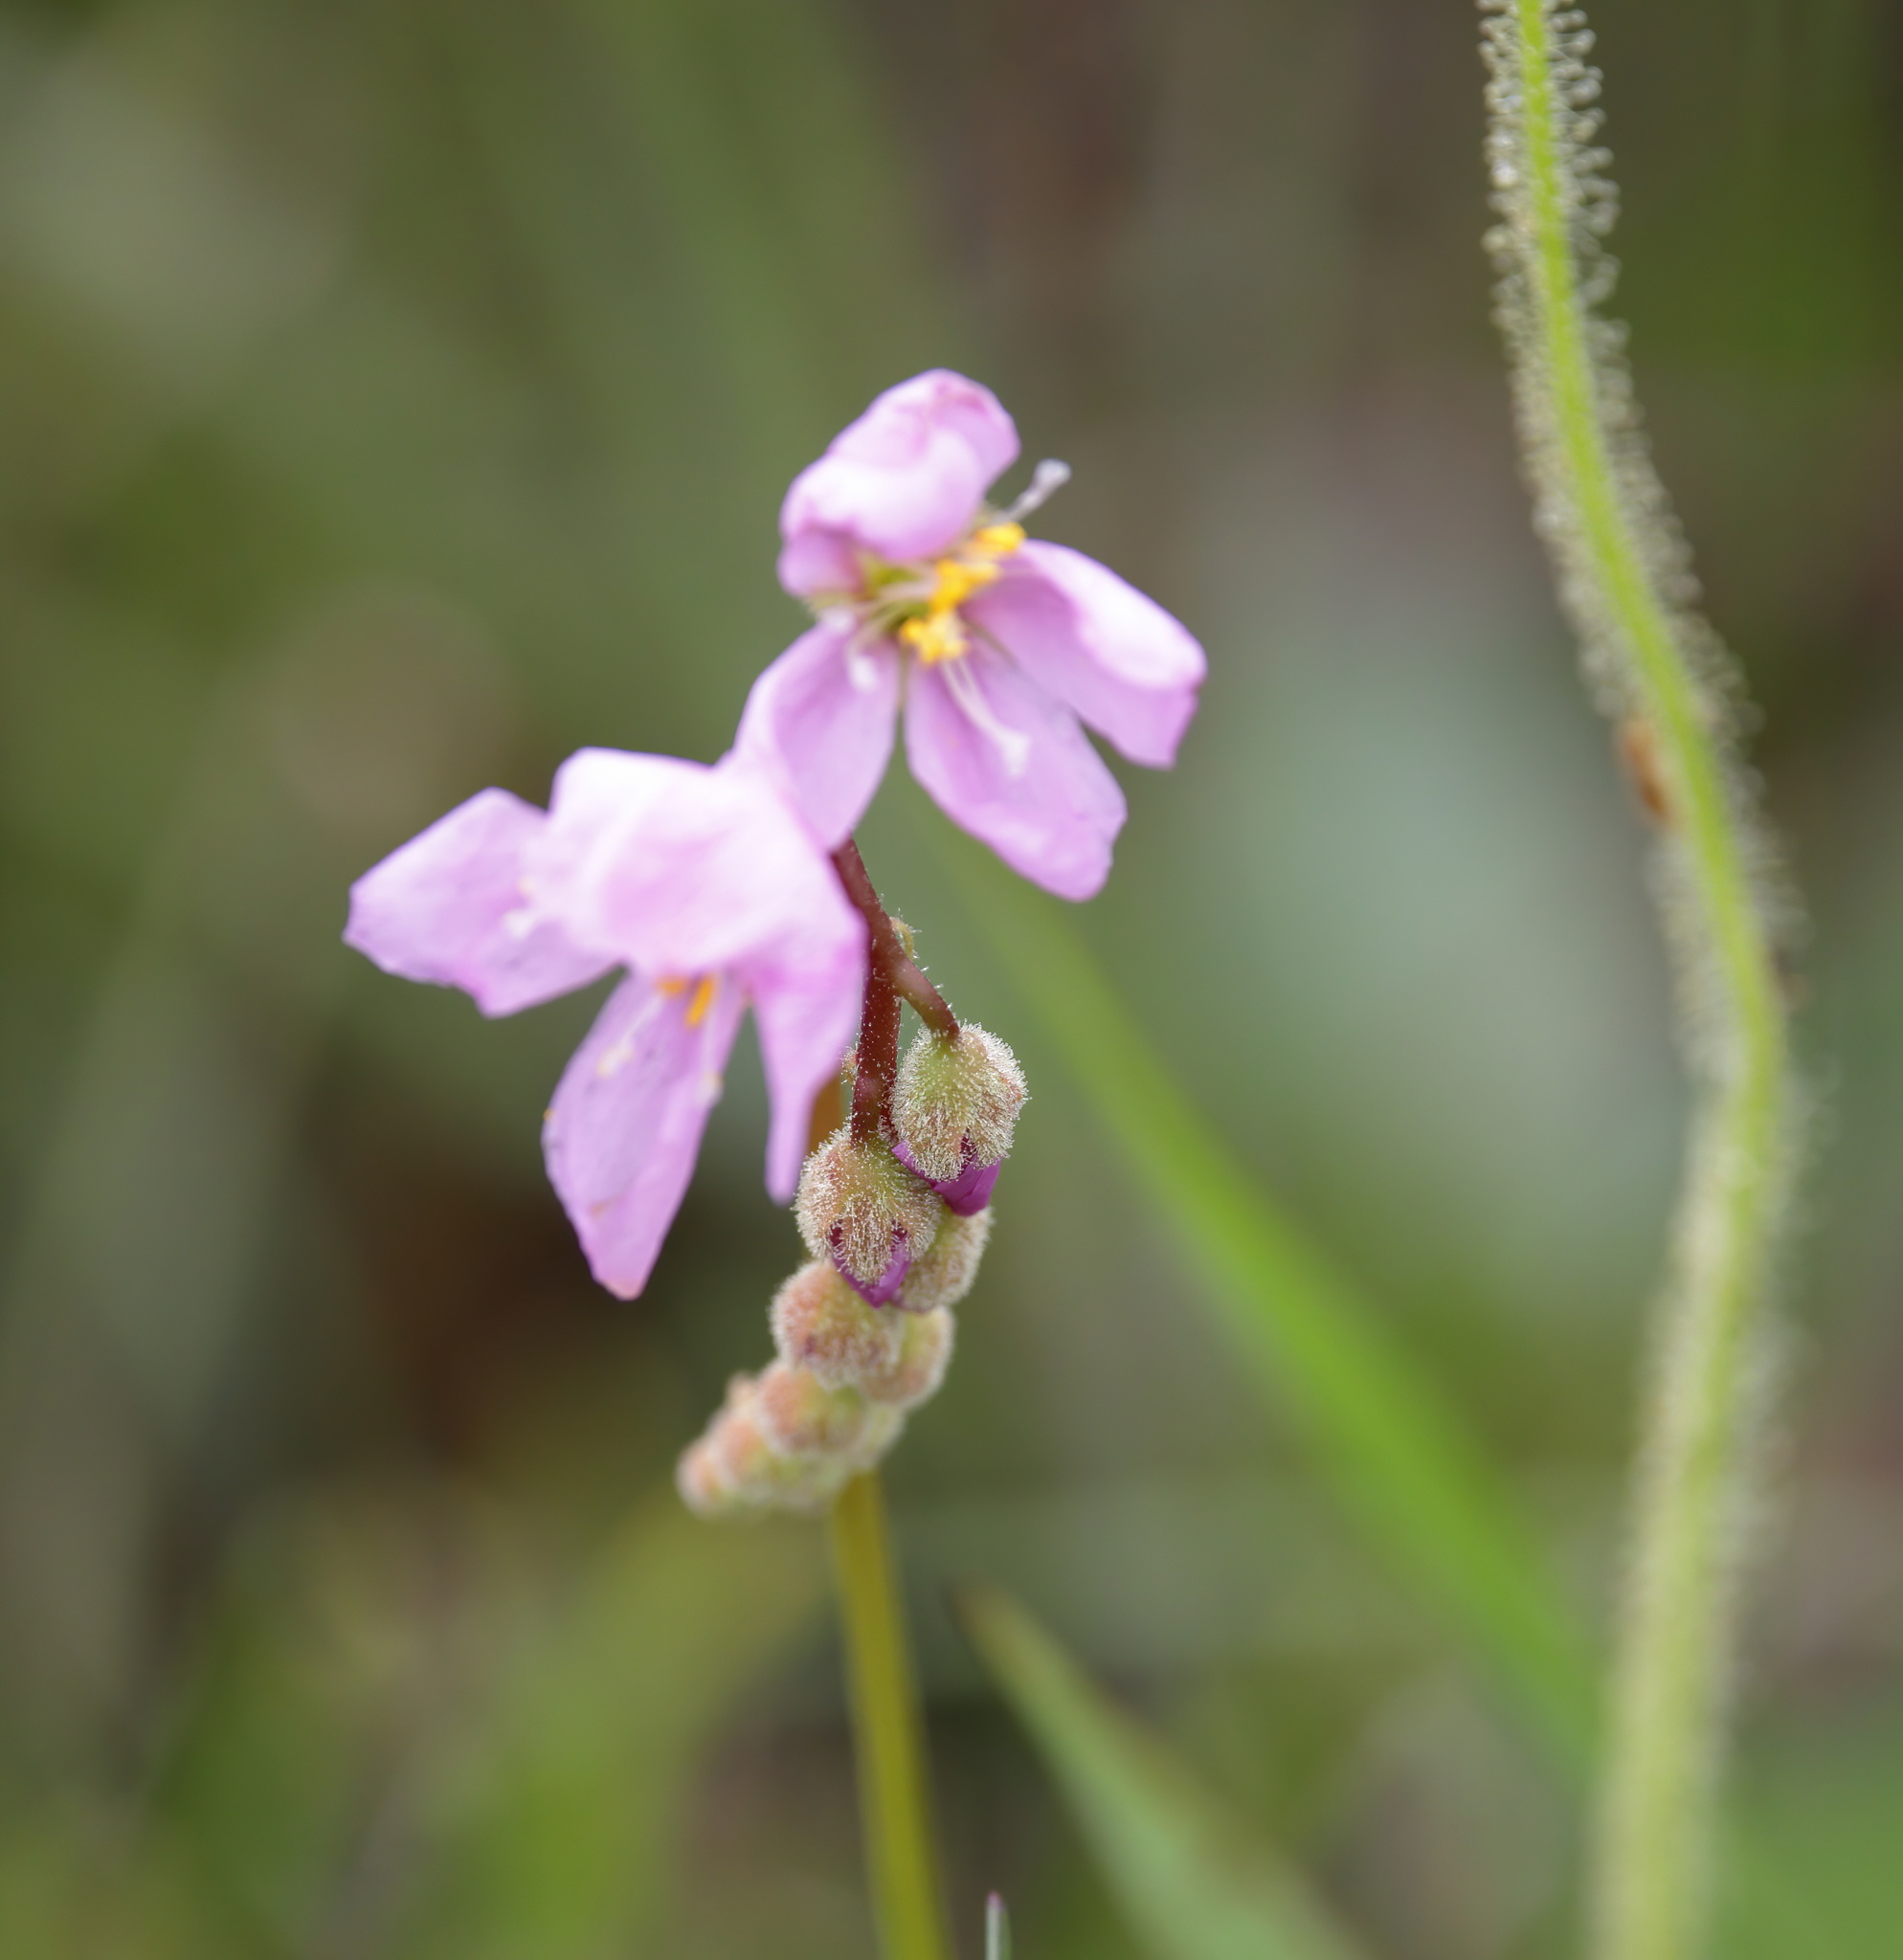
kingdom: Plantae
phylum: Tracheophyta
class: Magnoliopsida
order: Caryophyllales
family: Droseraceae
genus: Drosera
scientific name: Drosera filiformis
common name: Dew-thread
